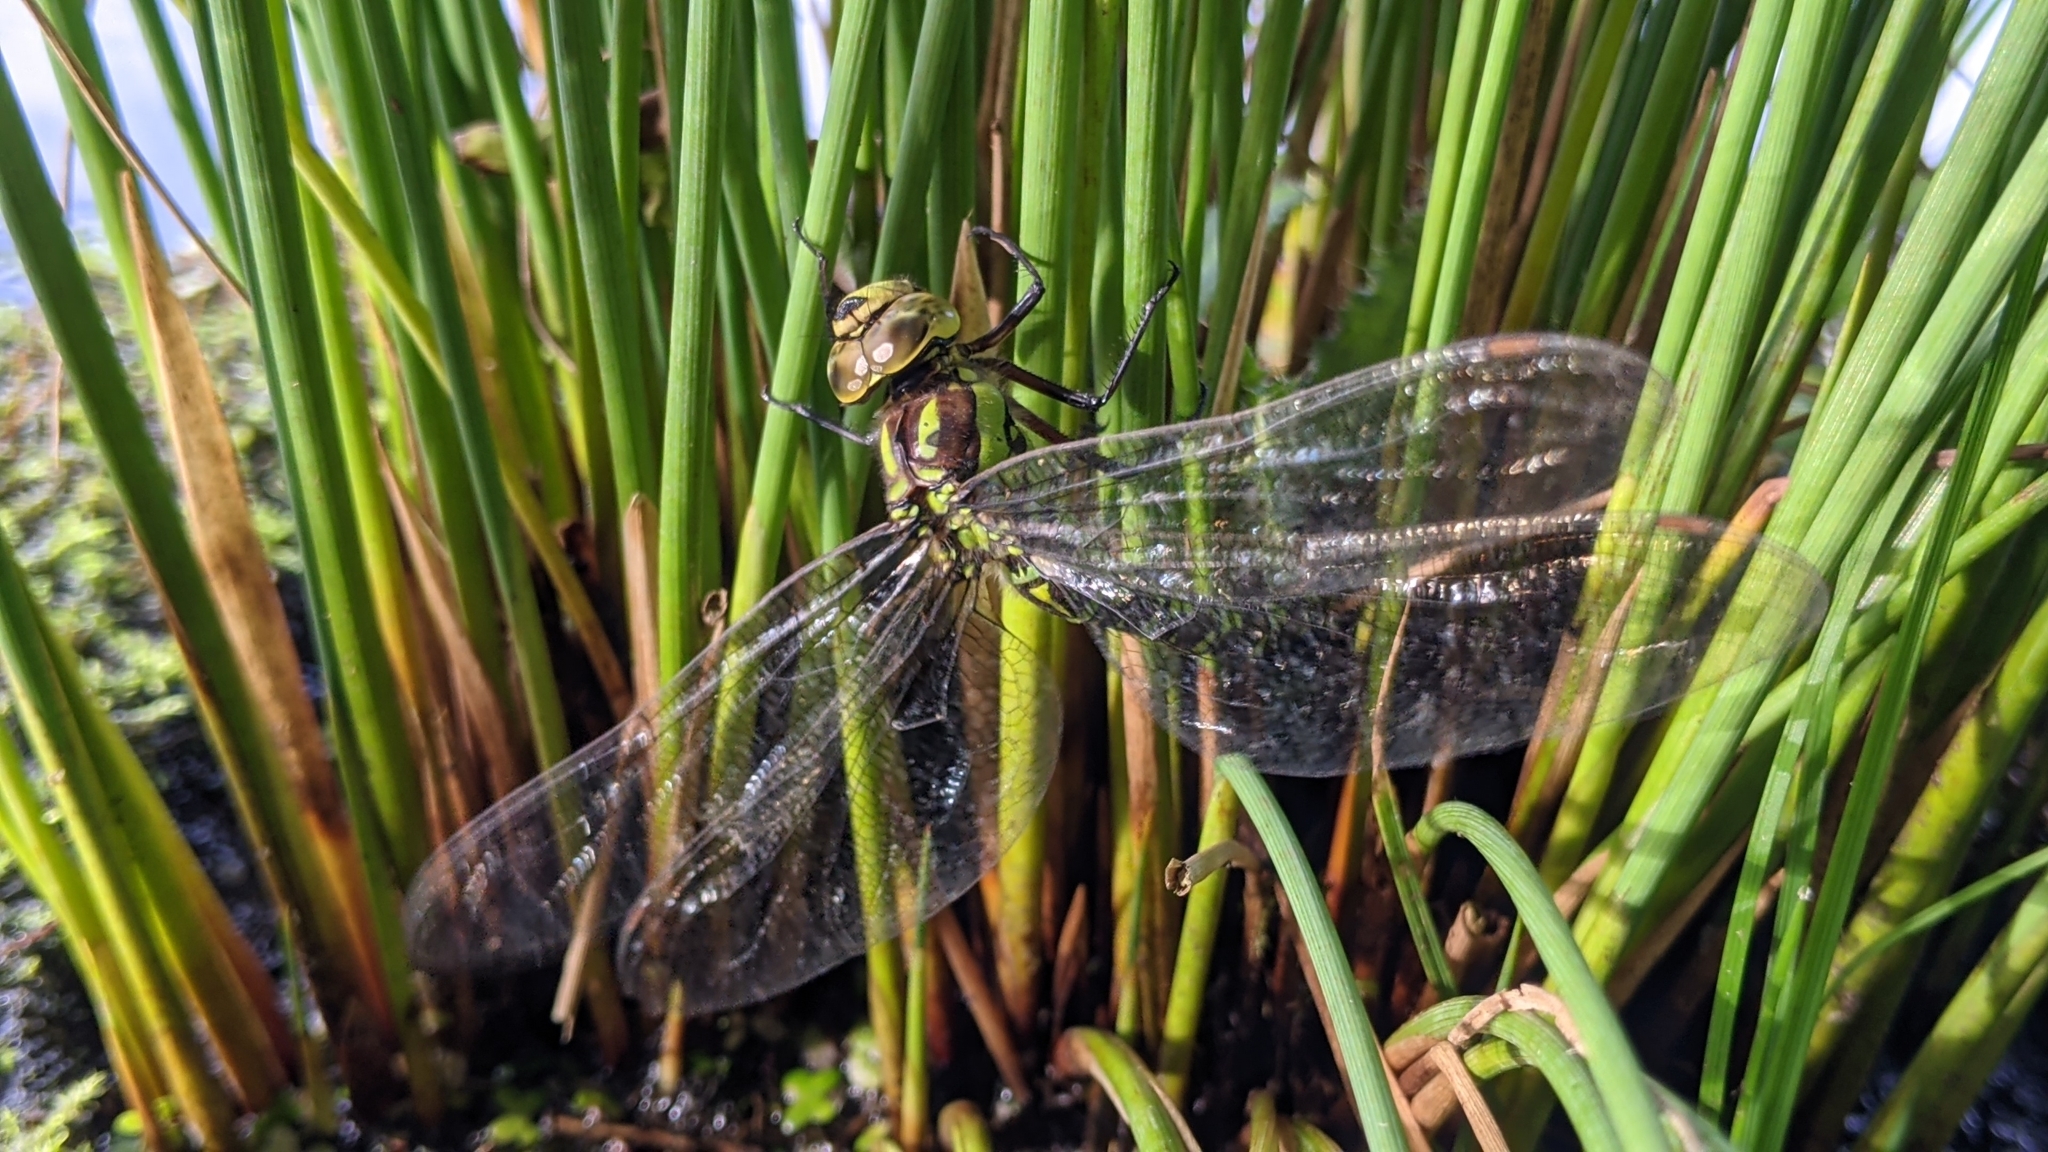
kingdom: Animalia
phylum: Arthropoda
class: Insecta
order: Odonata
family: Aeshnidae
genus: Aeshna
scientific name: Aeshna cyanea
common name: Southern hawker
